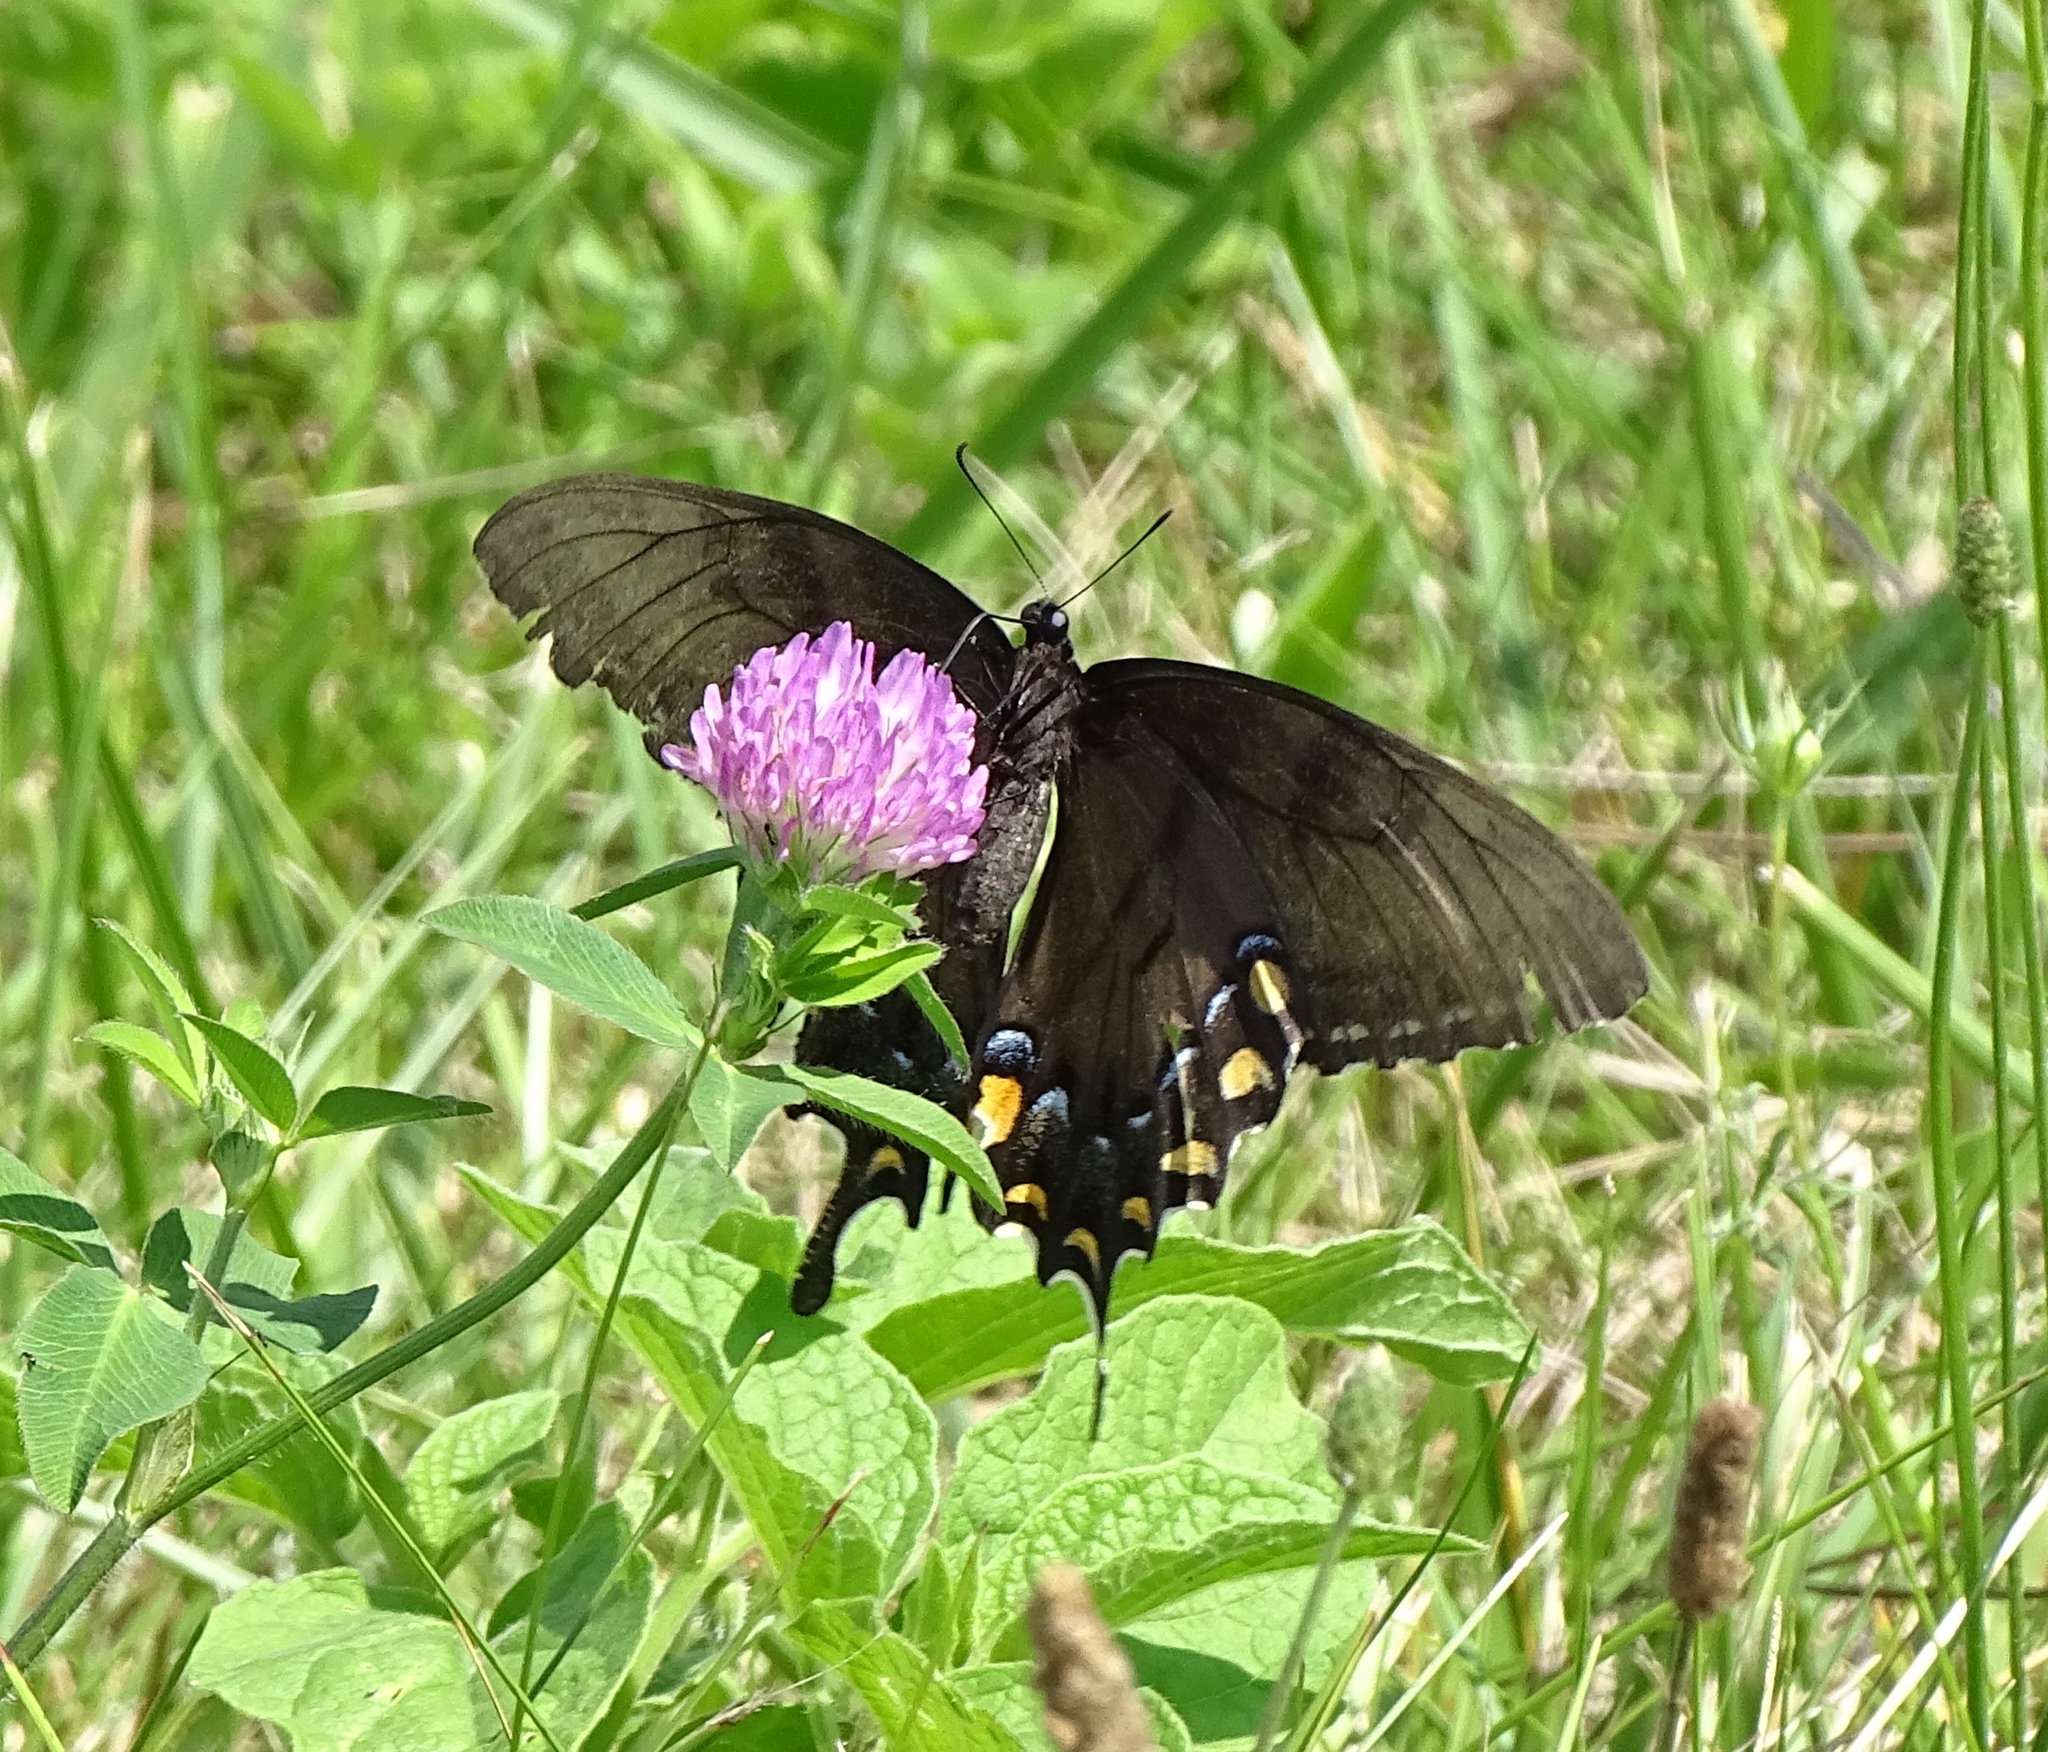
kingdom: Animalia
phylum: Arthropoda
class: Insecta
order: Lepidoptera
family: Papilionidae
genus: Papilio
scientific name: Papilio glaucus
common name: Tiger swallowtail
